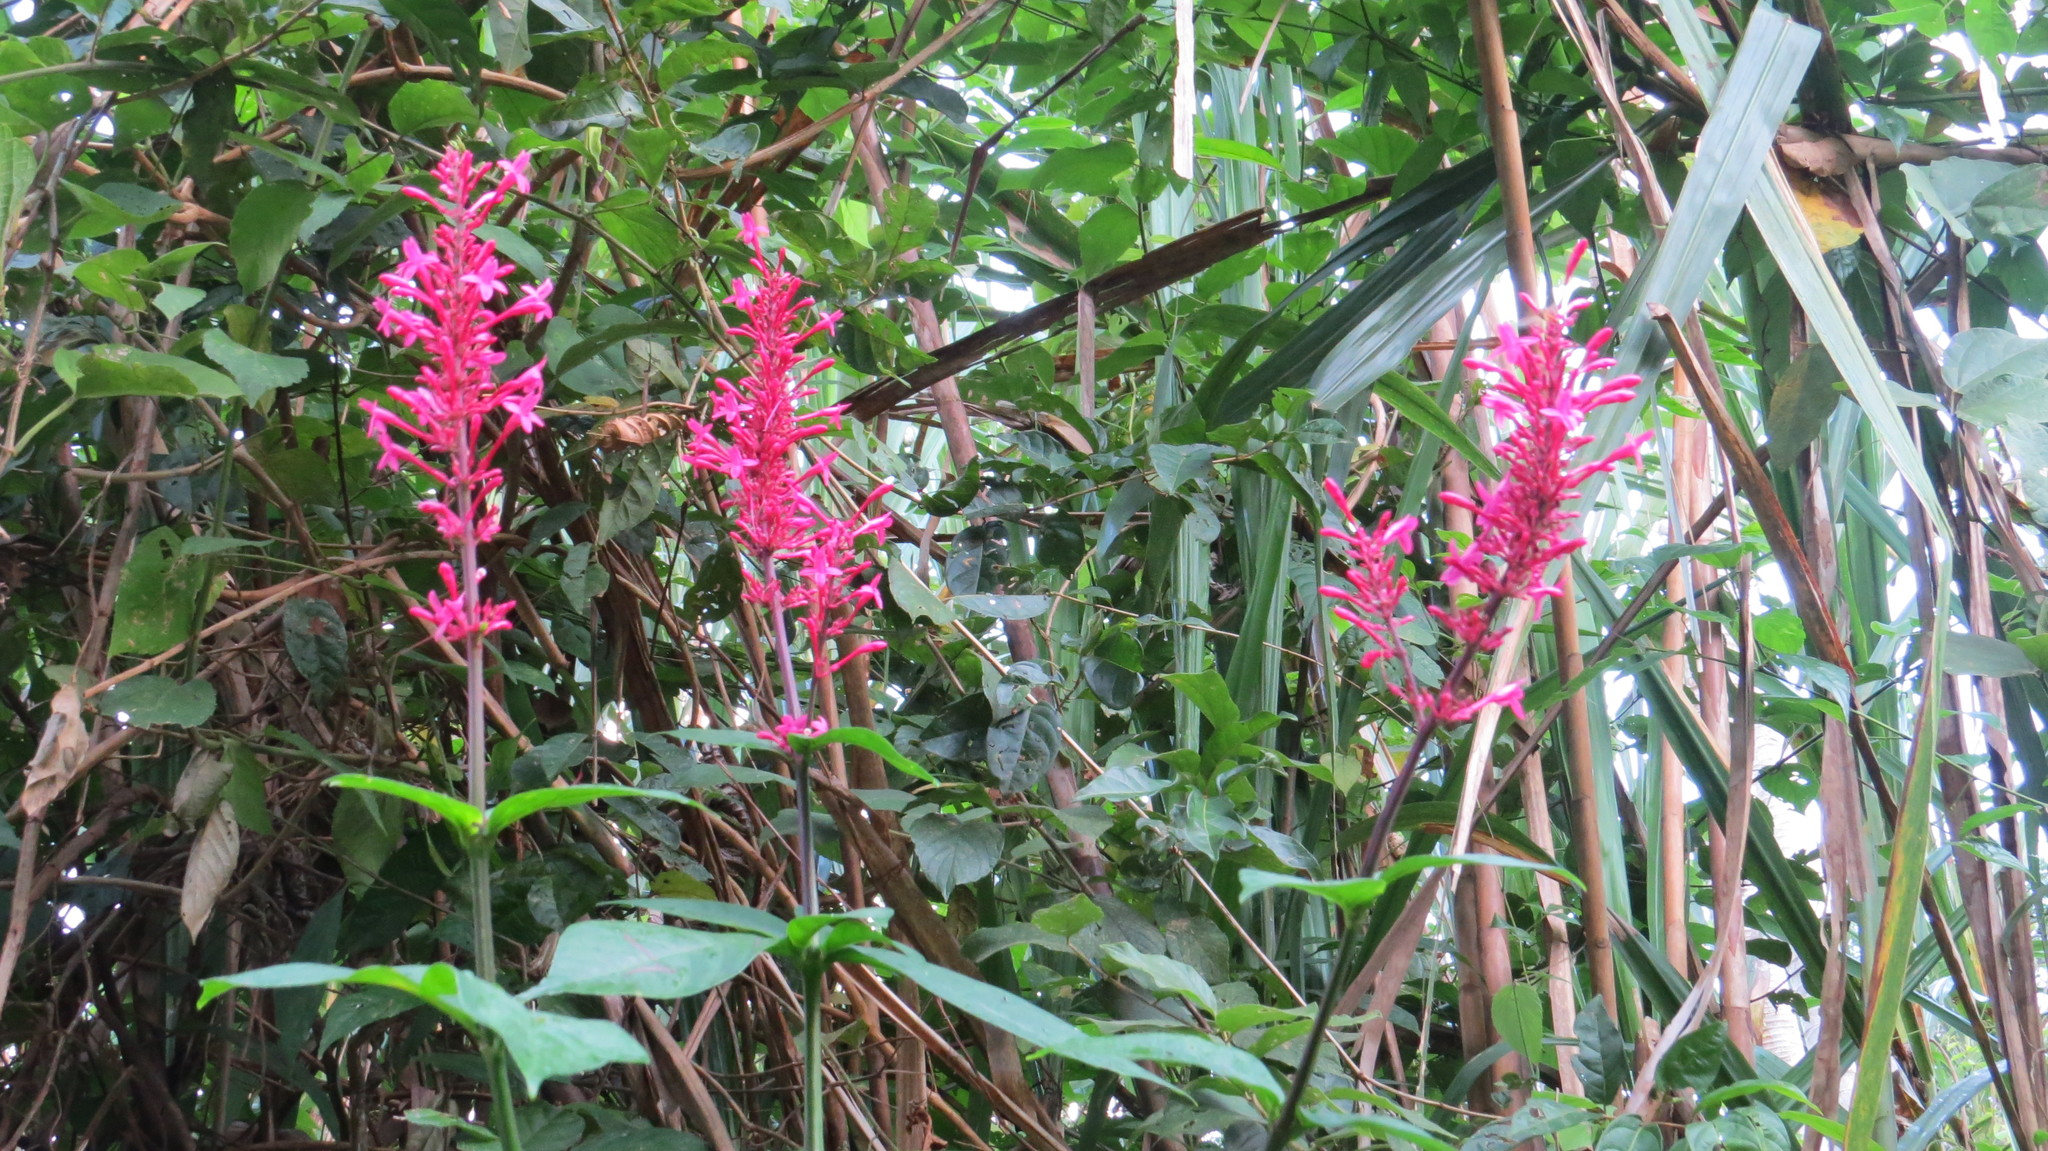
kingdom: Plantae
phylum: Tracheophyta
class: Magnoliopsida
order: Lamiales
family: Acanthaceae
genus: Odontonema
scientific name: Odontonema callistachyum
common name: Firespike
